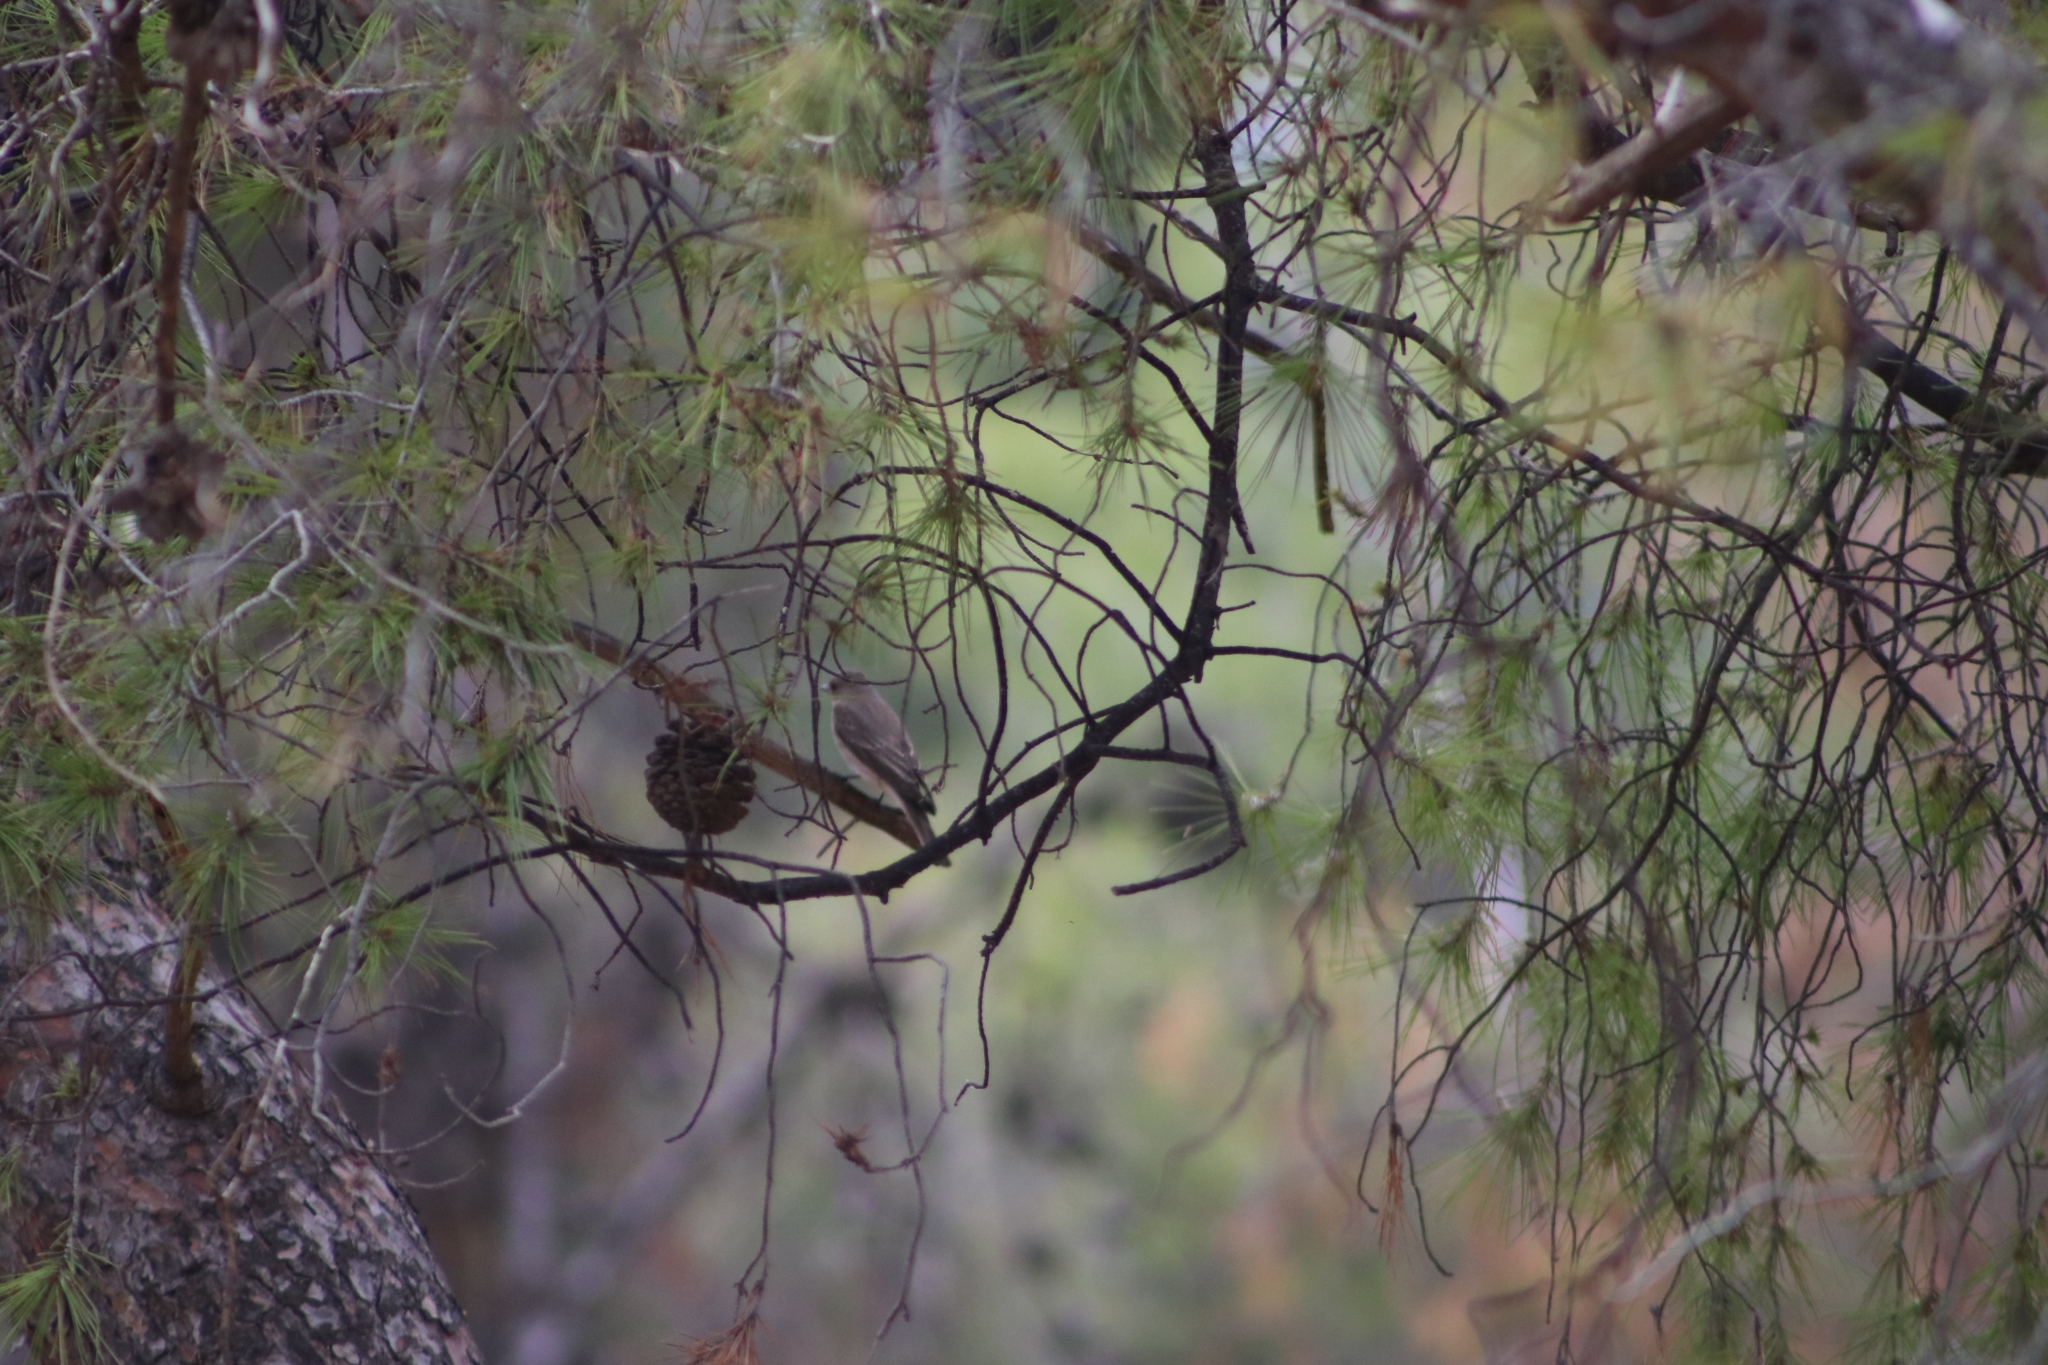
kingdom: Animalia
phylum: Chordata
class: Aves
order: Passeriformes
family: Muscicapidae
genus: Muscicapa
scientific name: Muscicapa striata
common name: Spotted flycatcher
